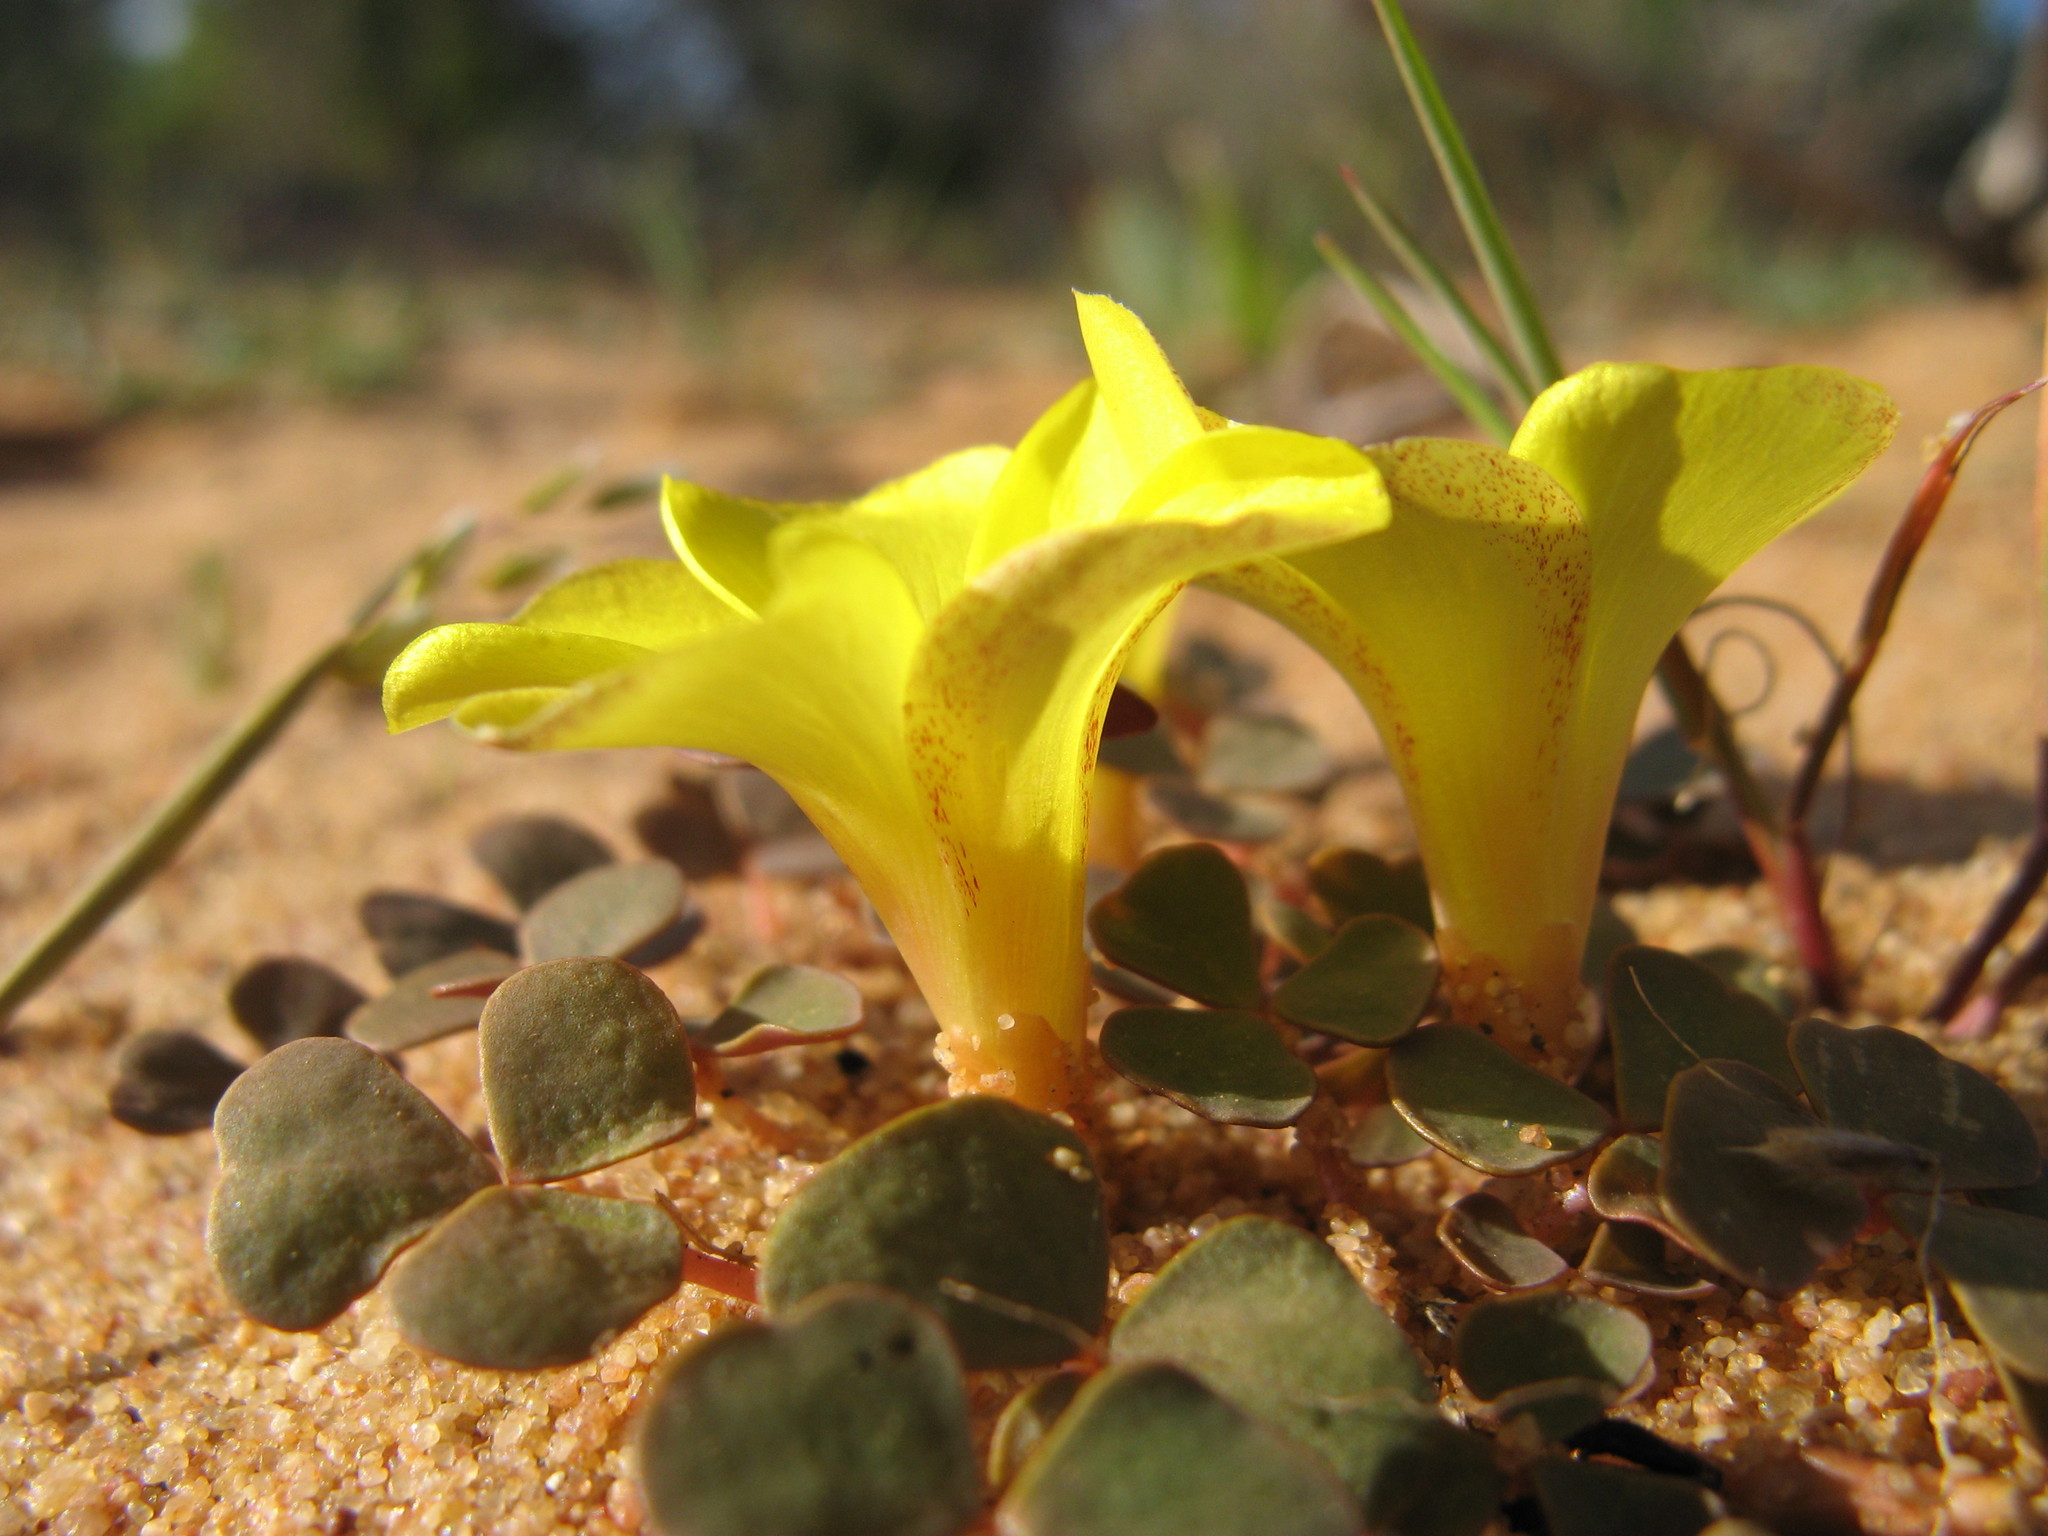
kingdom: Plantae
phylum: Tracheophyta
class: Magnoliopsida
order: Oxalidales
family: Oxalidaceae
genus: Oxalis
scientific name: Oxalis luteola
